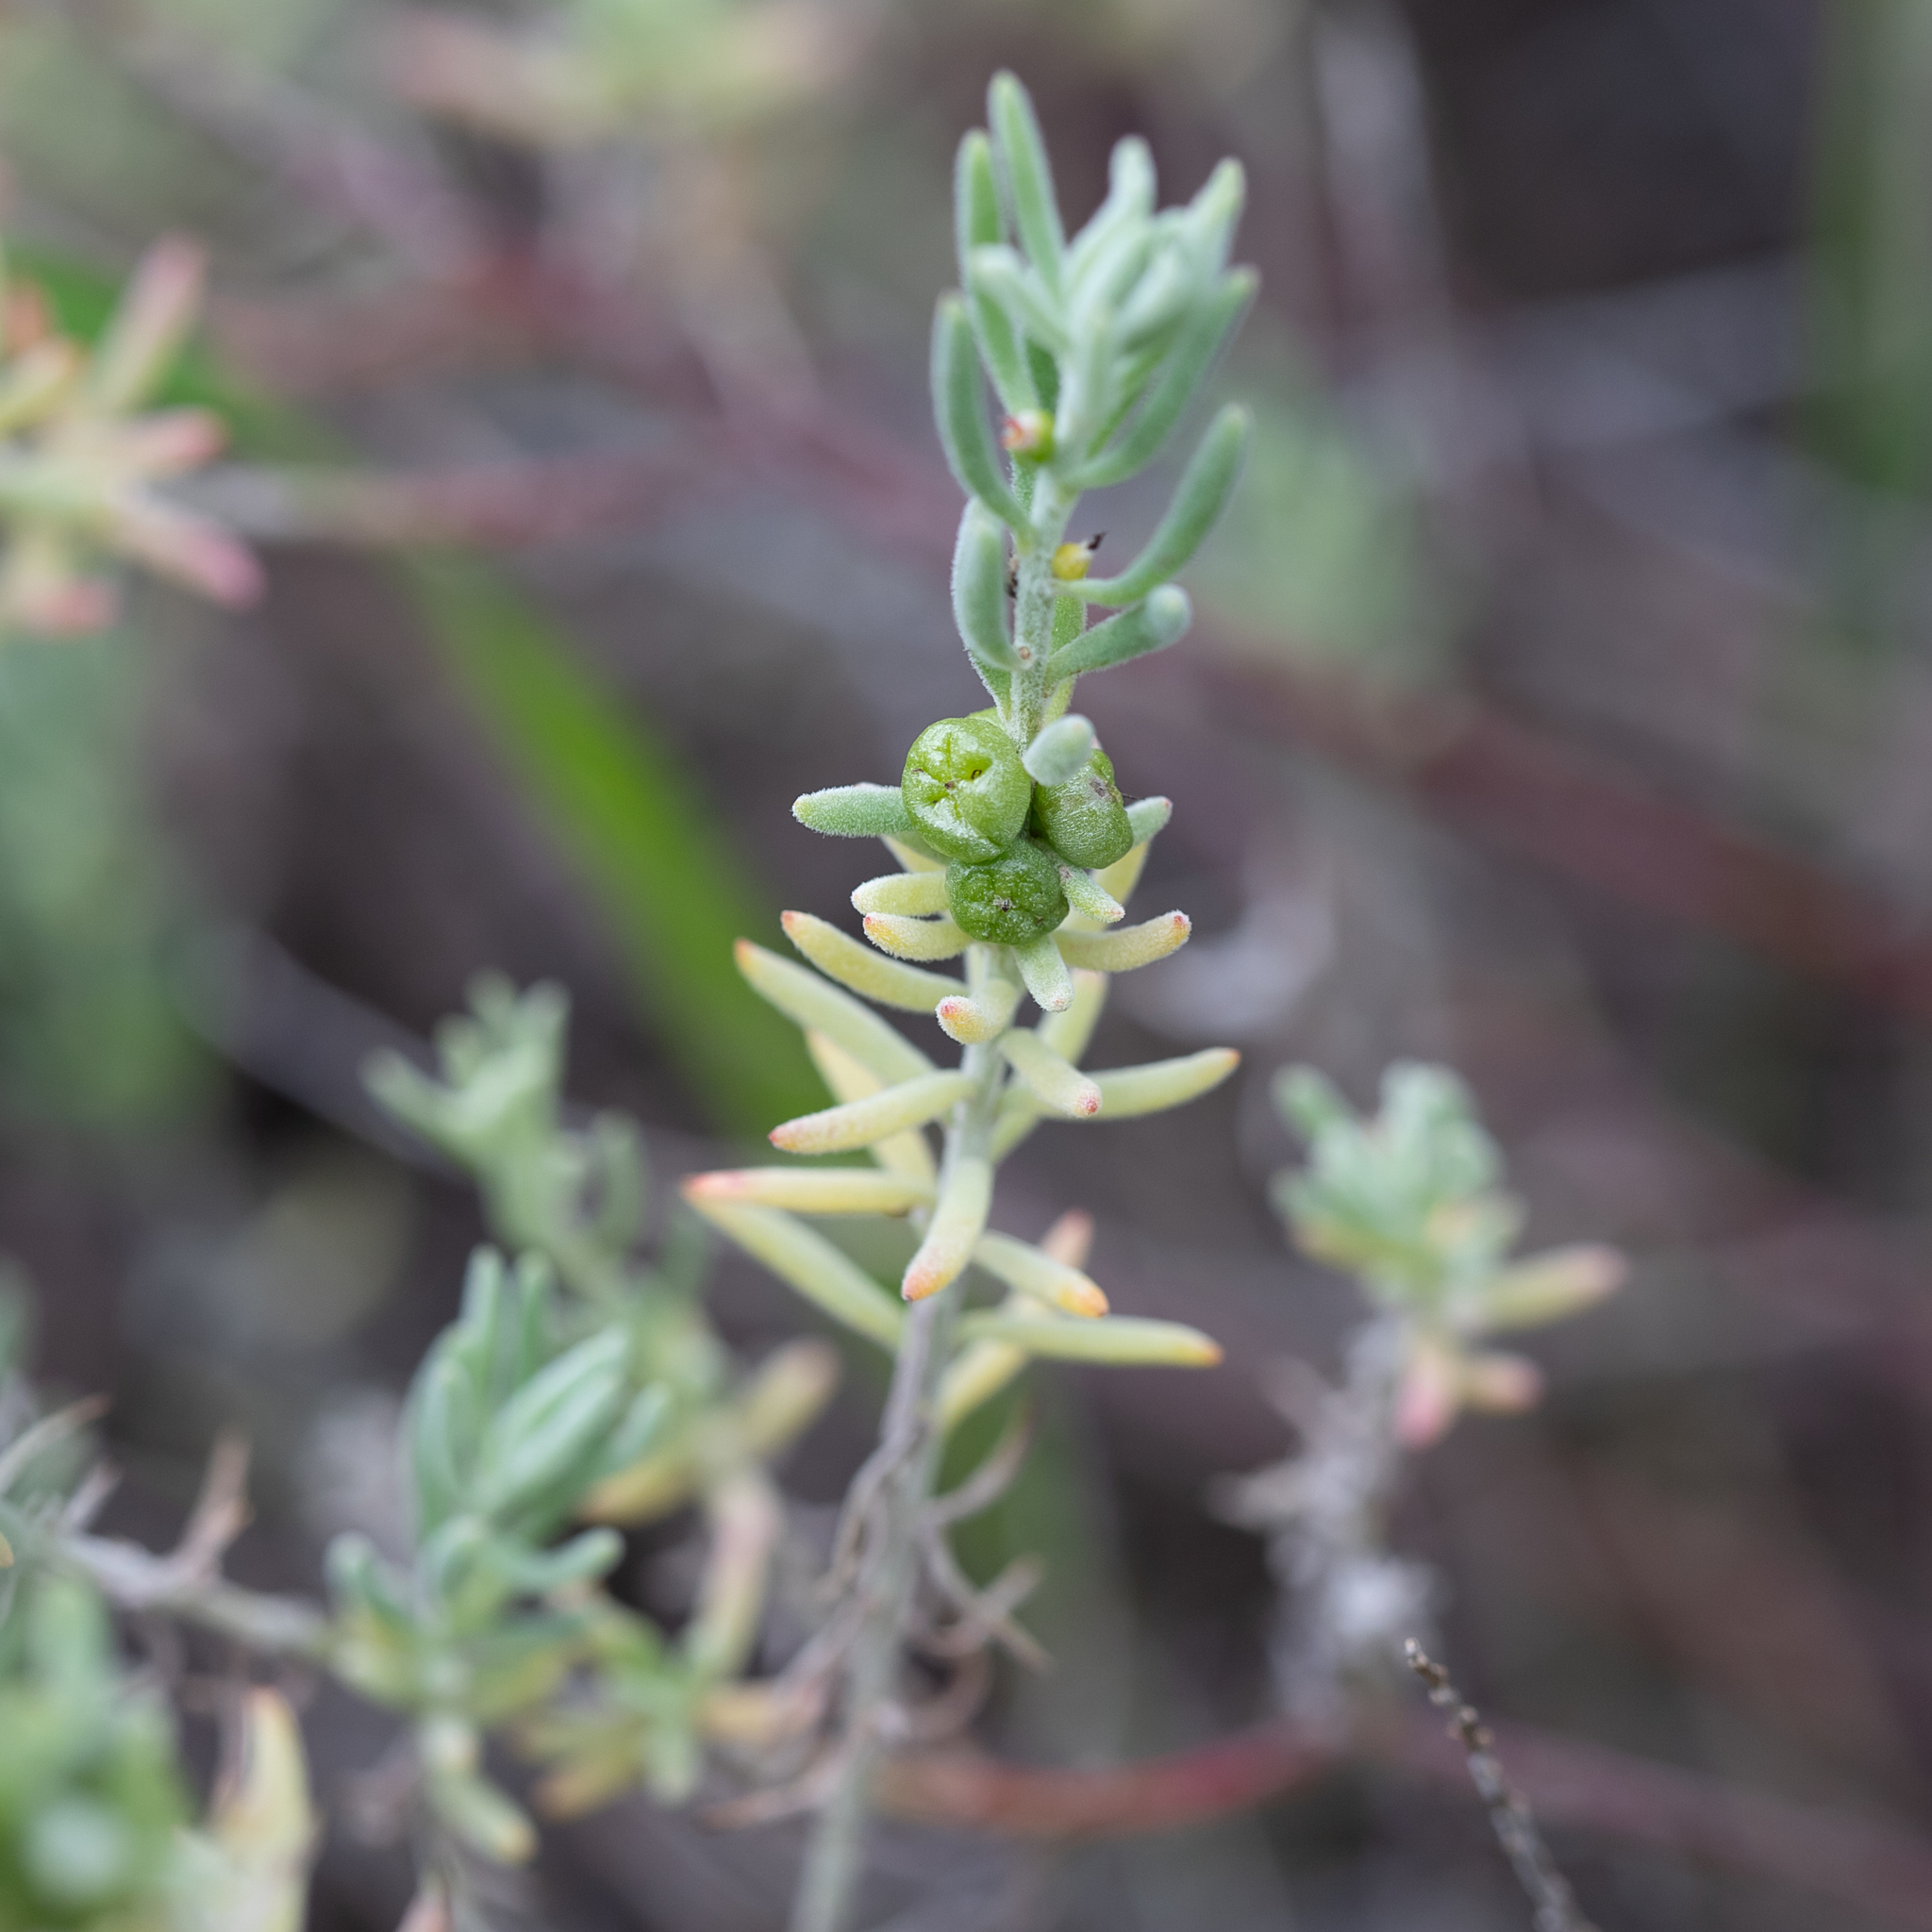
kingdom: Plantae
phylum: Tracheophyta
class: Magnoliopsida
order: Caryophyllales
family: Amaranthaceae
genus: Enchylaena
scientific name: Enchylaena tomentosa
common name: Ruby saltbush
